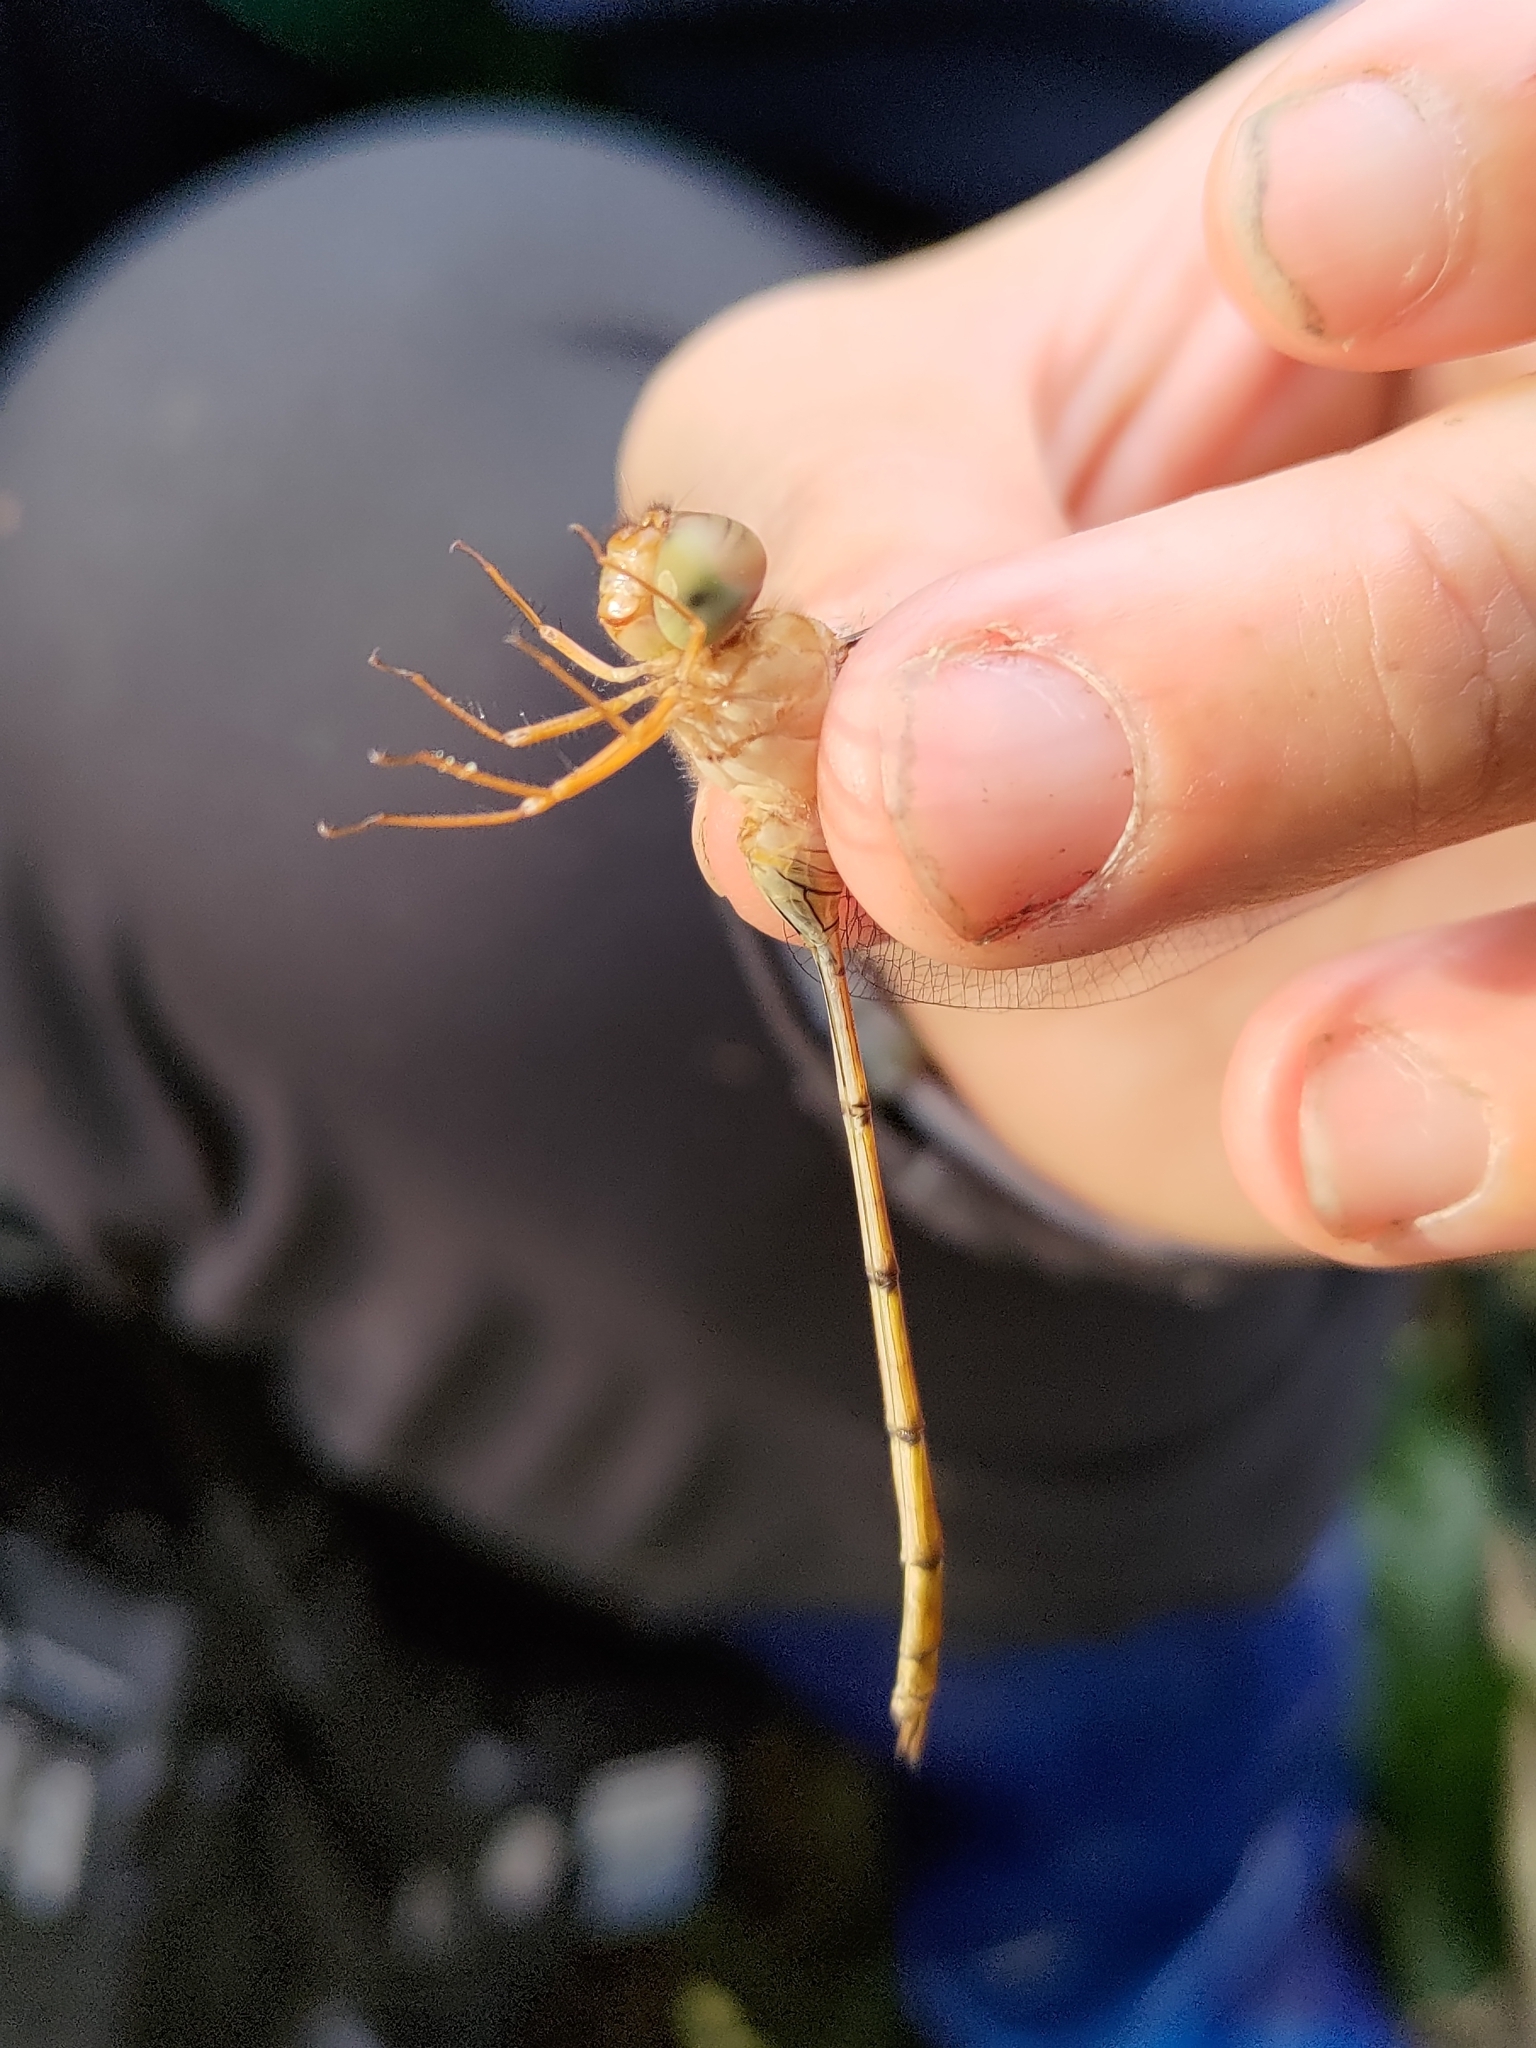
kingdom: Animalia
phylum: Arthropoda
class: Insecta
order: Odonata
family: Libellulidae
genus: Zyxomma
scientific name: Zyxomma petiolatum
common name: Dingy dusk-darter
